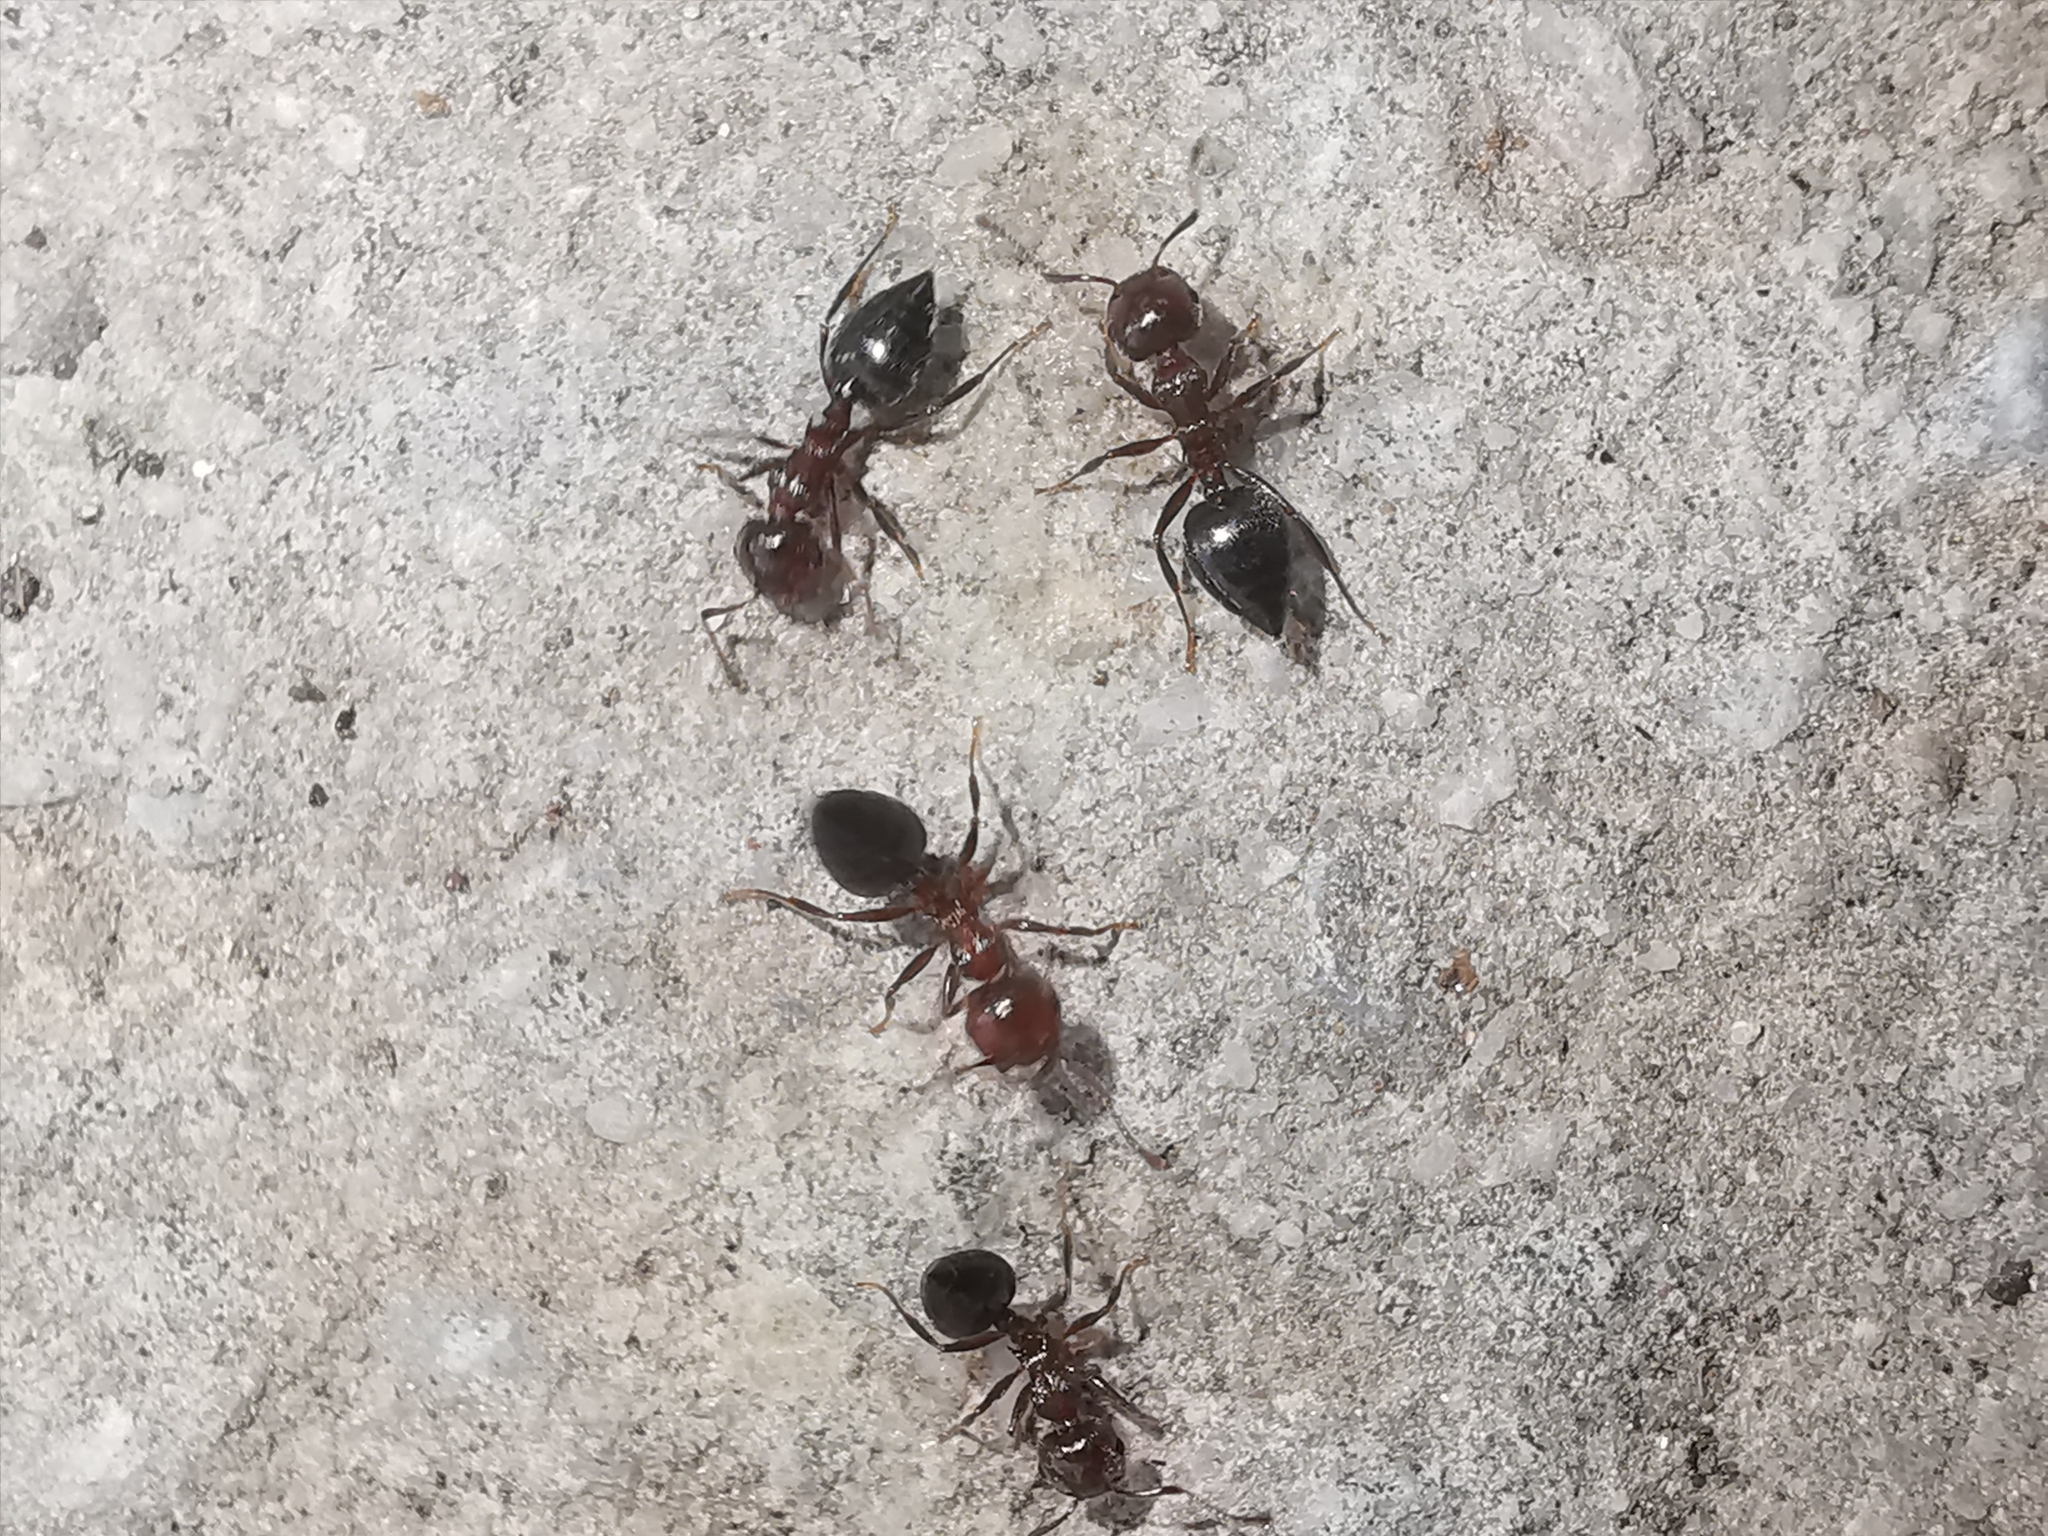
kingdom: Animalia
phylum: Arthropoda
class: Insecta
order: Hymenoptera
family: Formicidae
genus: Crematogaster
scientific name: Crematogaster schmidti
